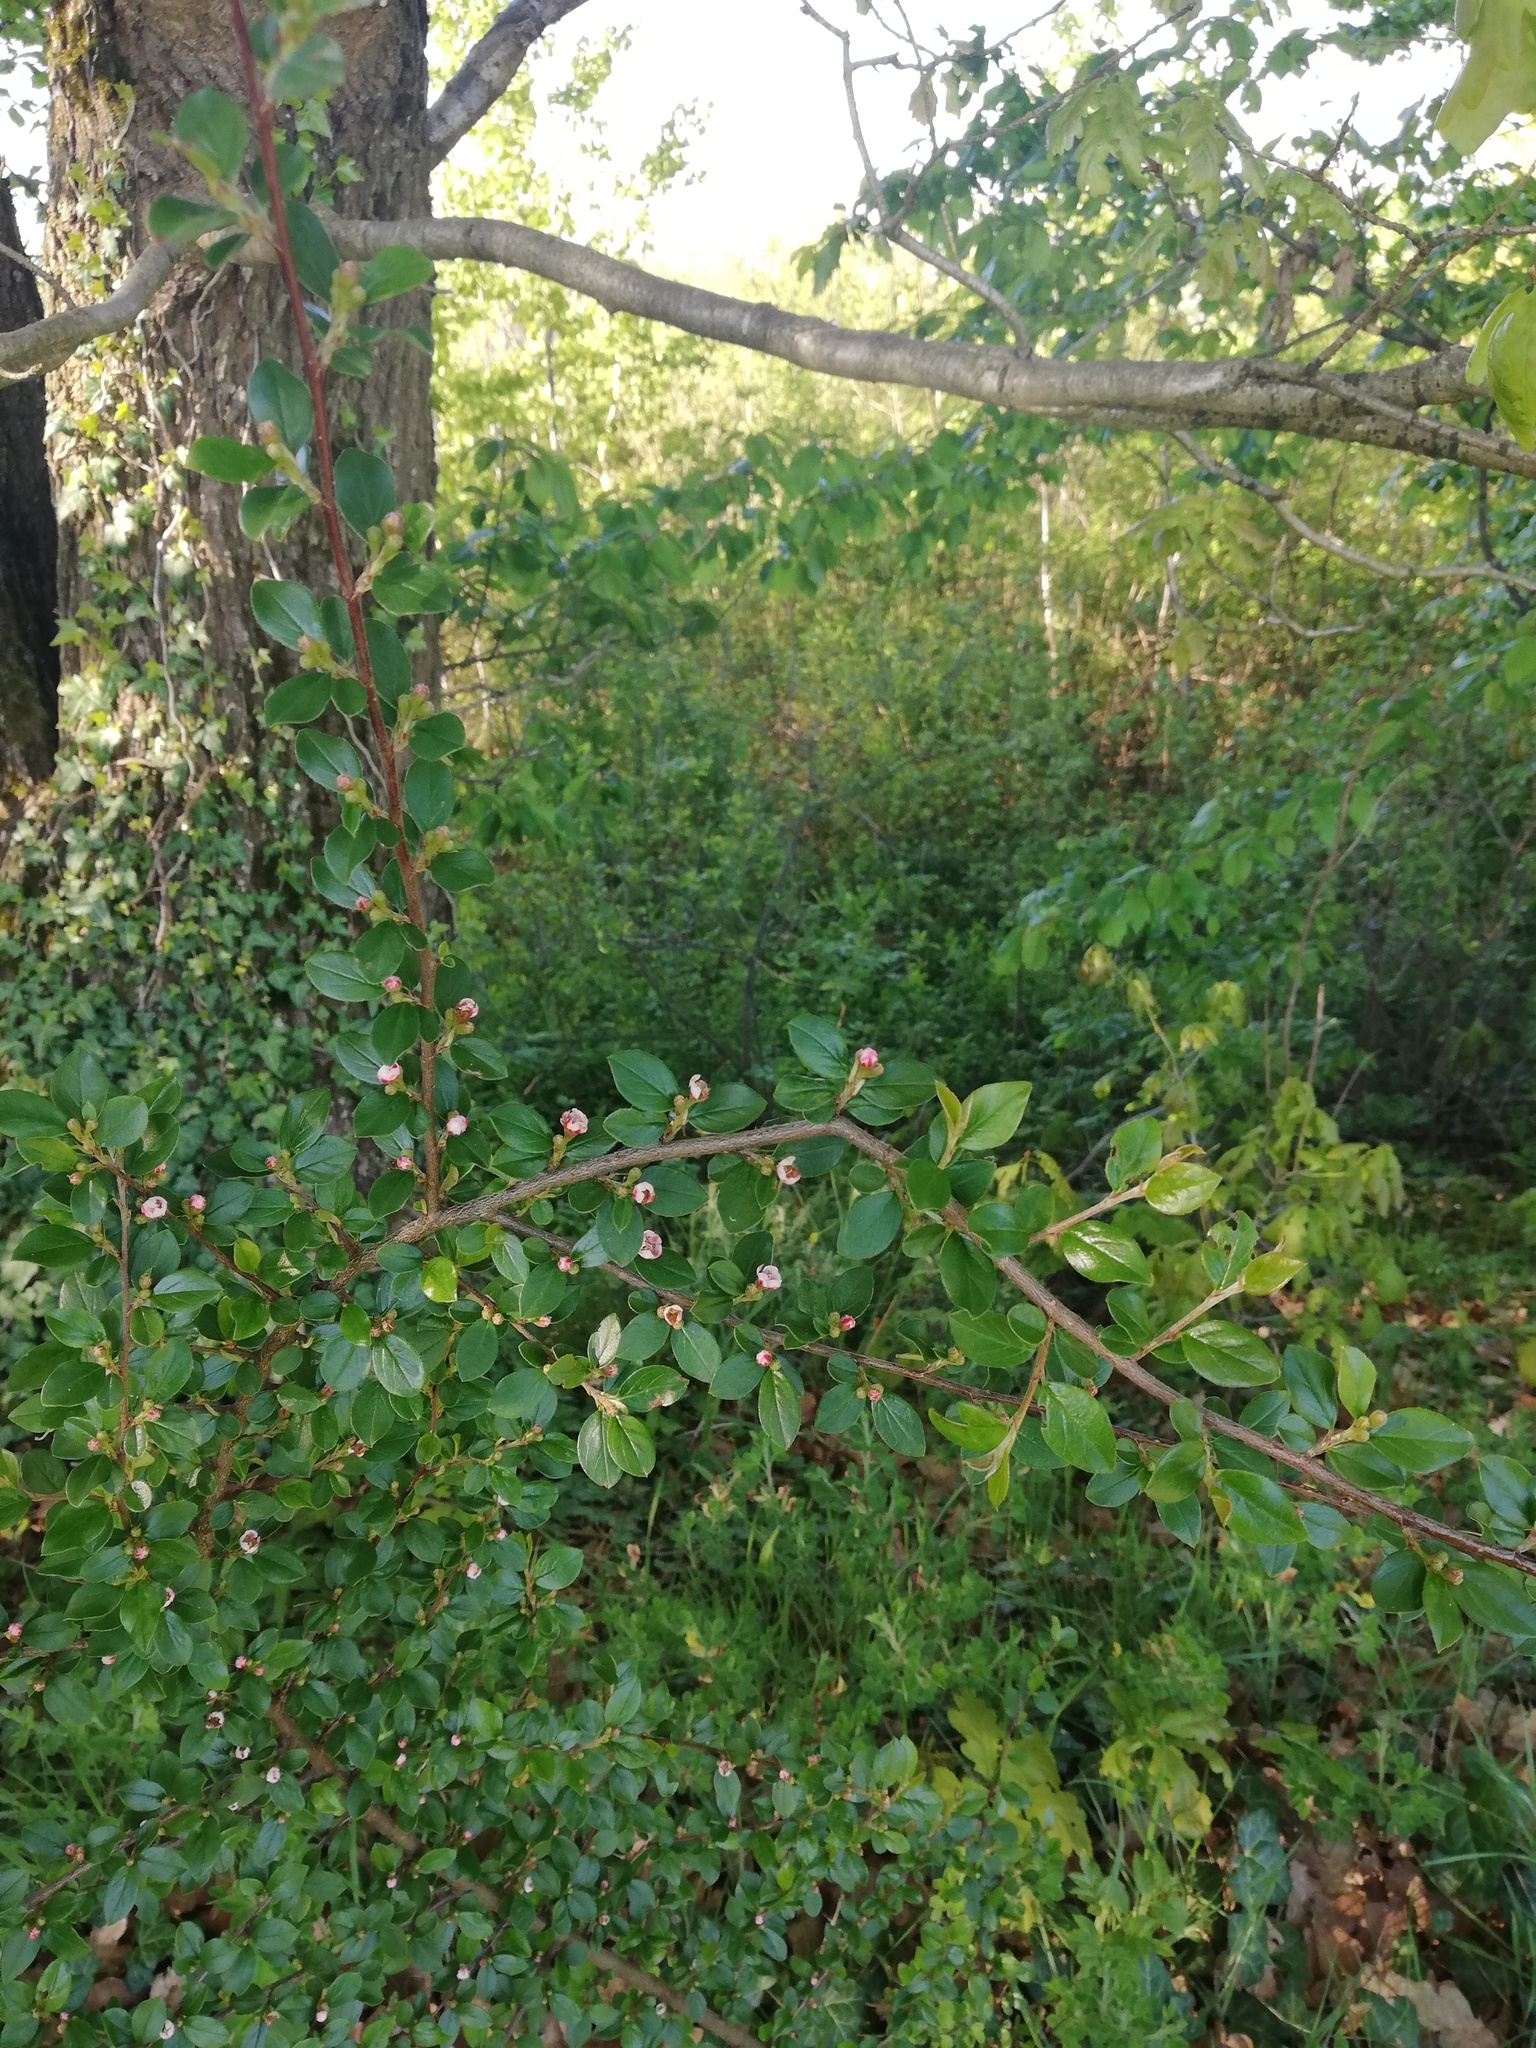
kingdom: Plantae
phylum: Tracheophyta
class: Magnoliopsida
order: Rosales
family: Rosaceae
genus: Cotoneaster
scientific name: Cotoneaster divaricatus
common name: Spreading cotoneaster
